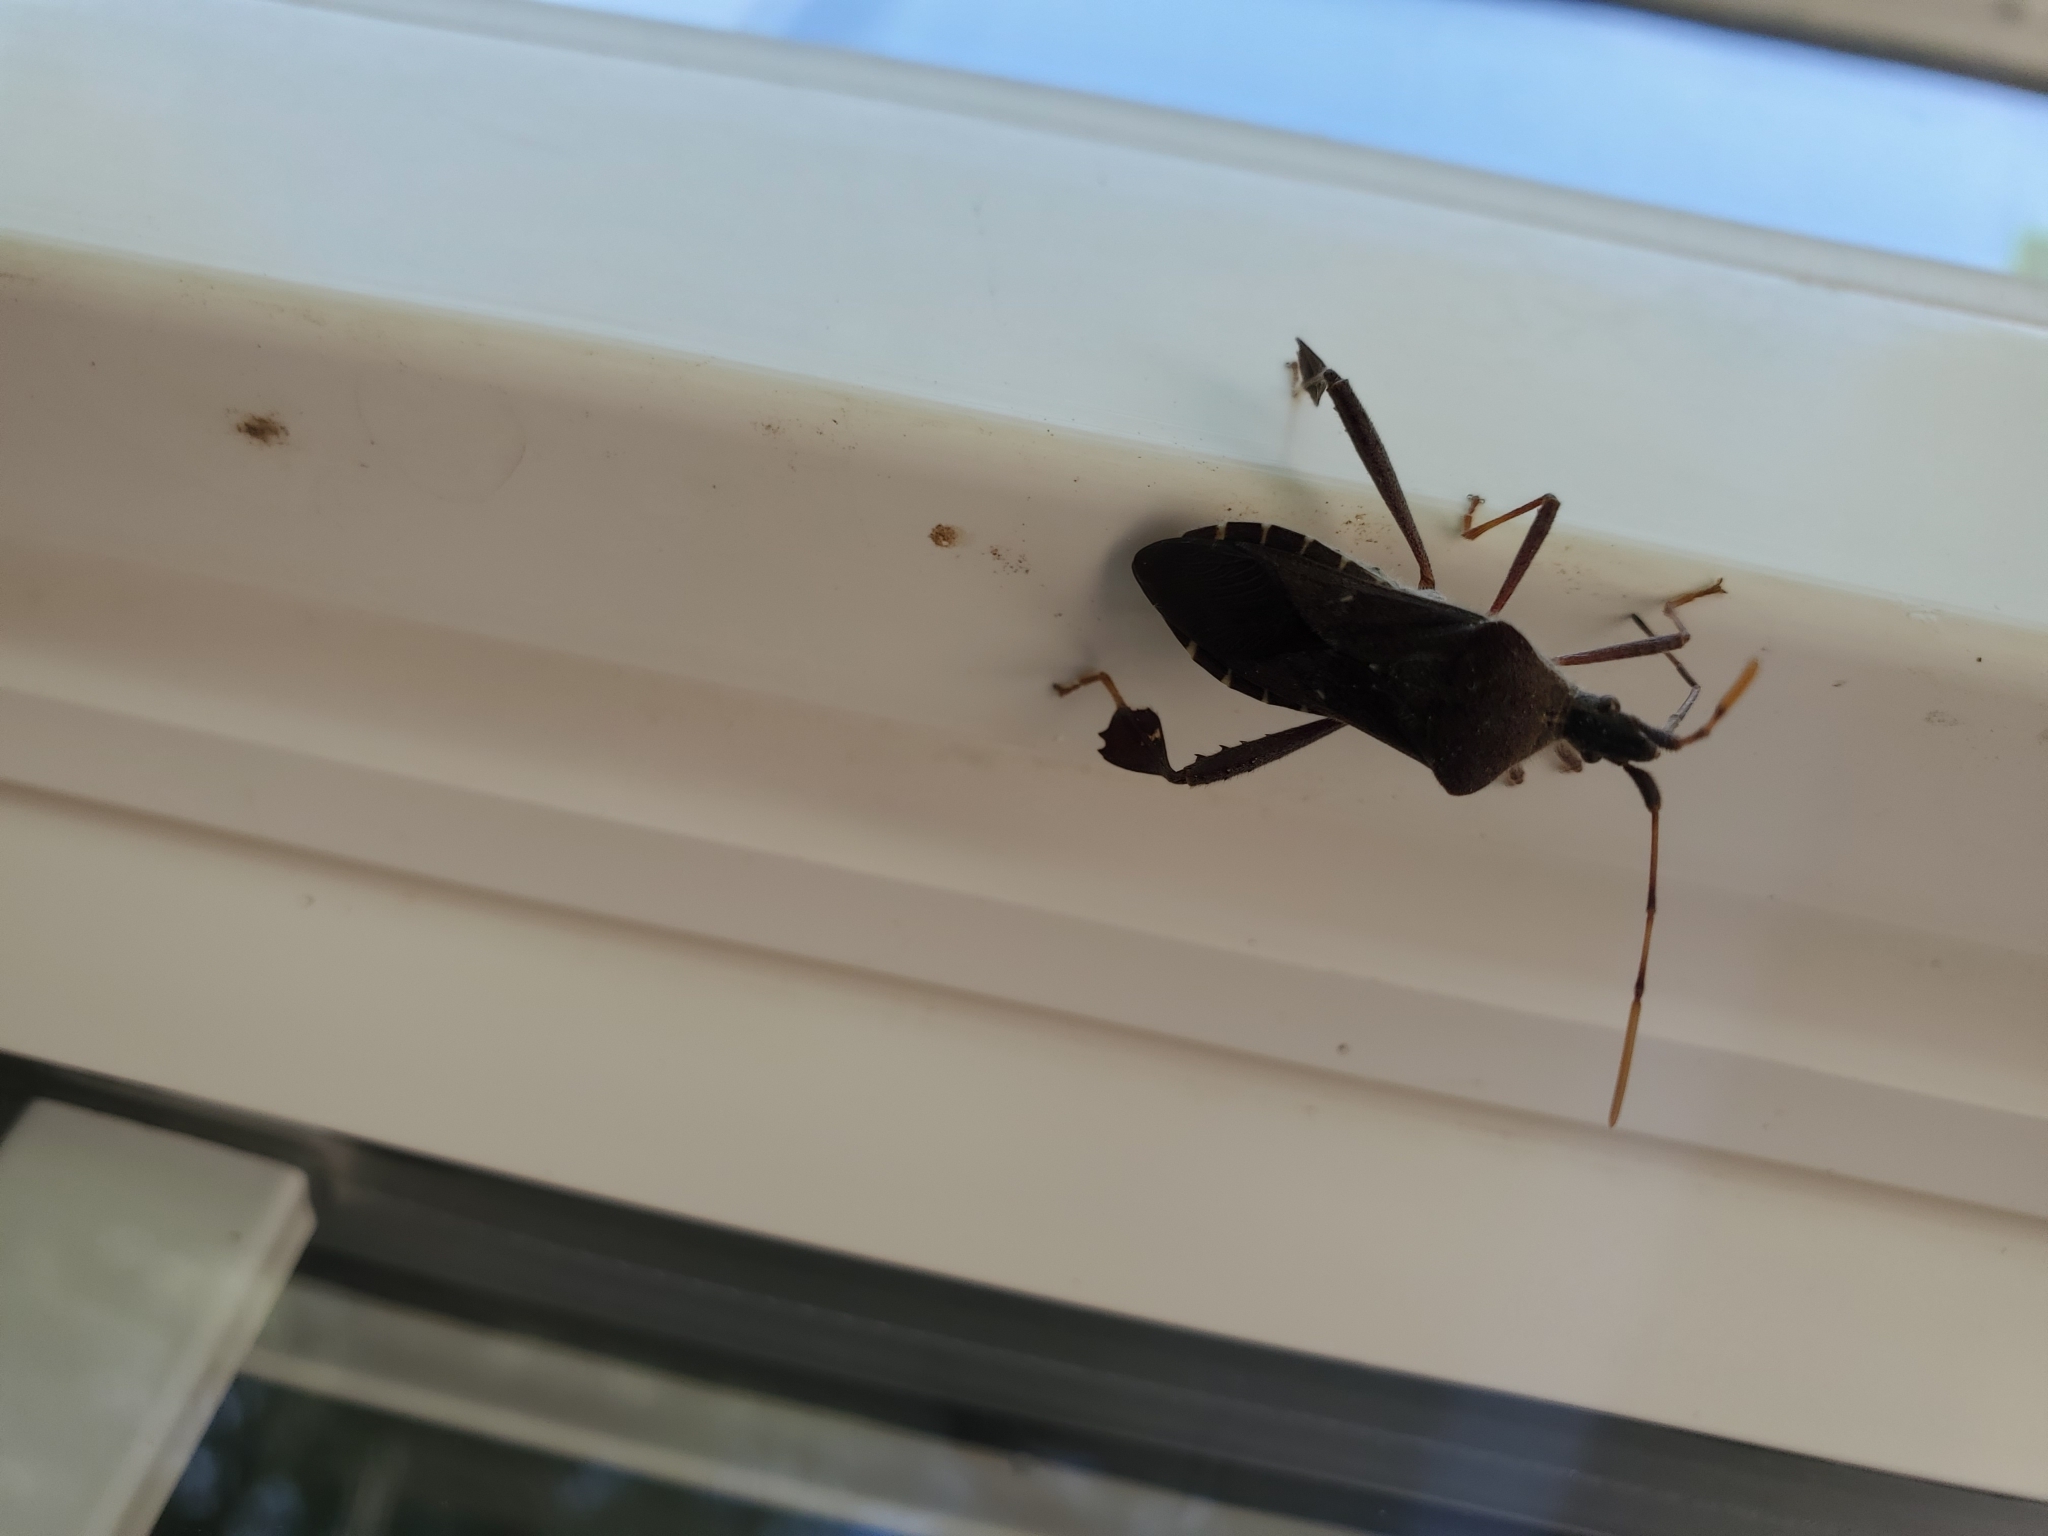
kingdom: Animalia
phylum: Arthropoda
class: Insecta
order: Hemiptera
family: Coreidae
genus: Leptoglossus
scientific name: Leptoglossus oppositus
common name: Northern leaf-footed bug
